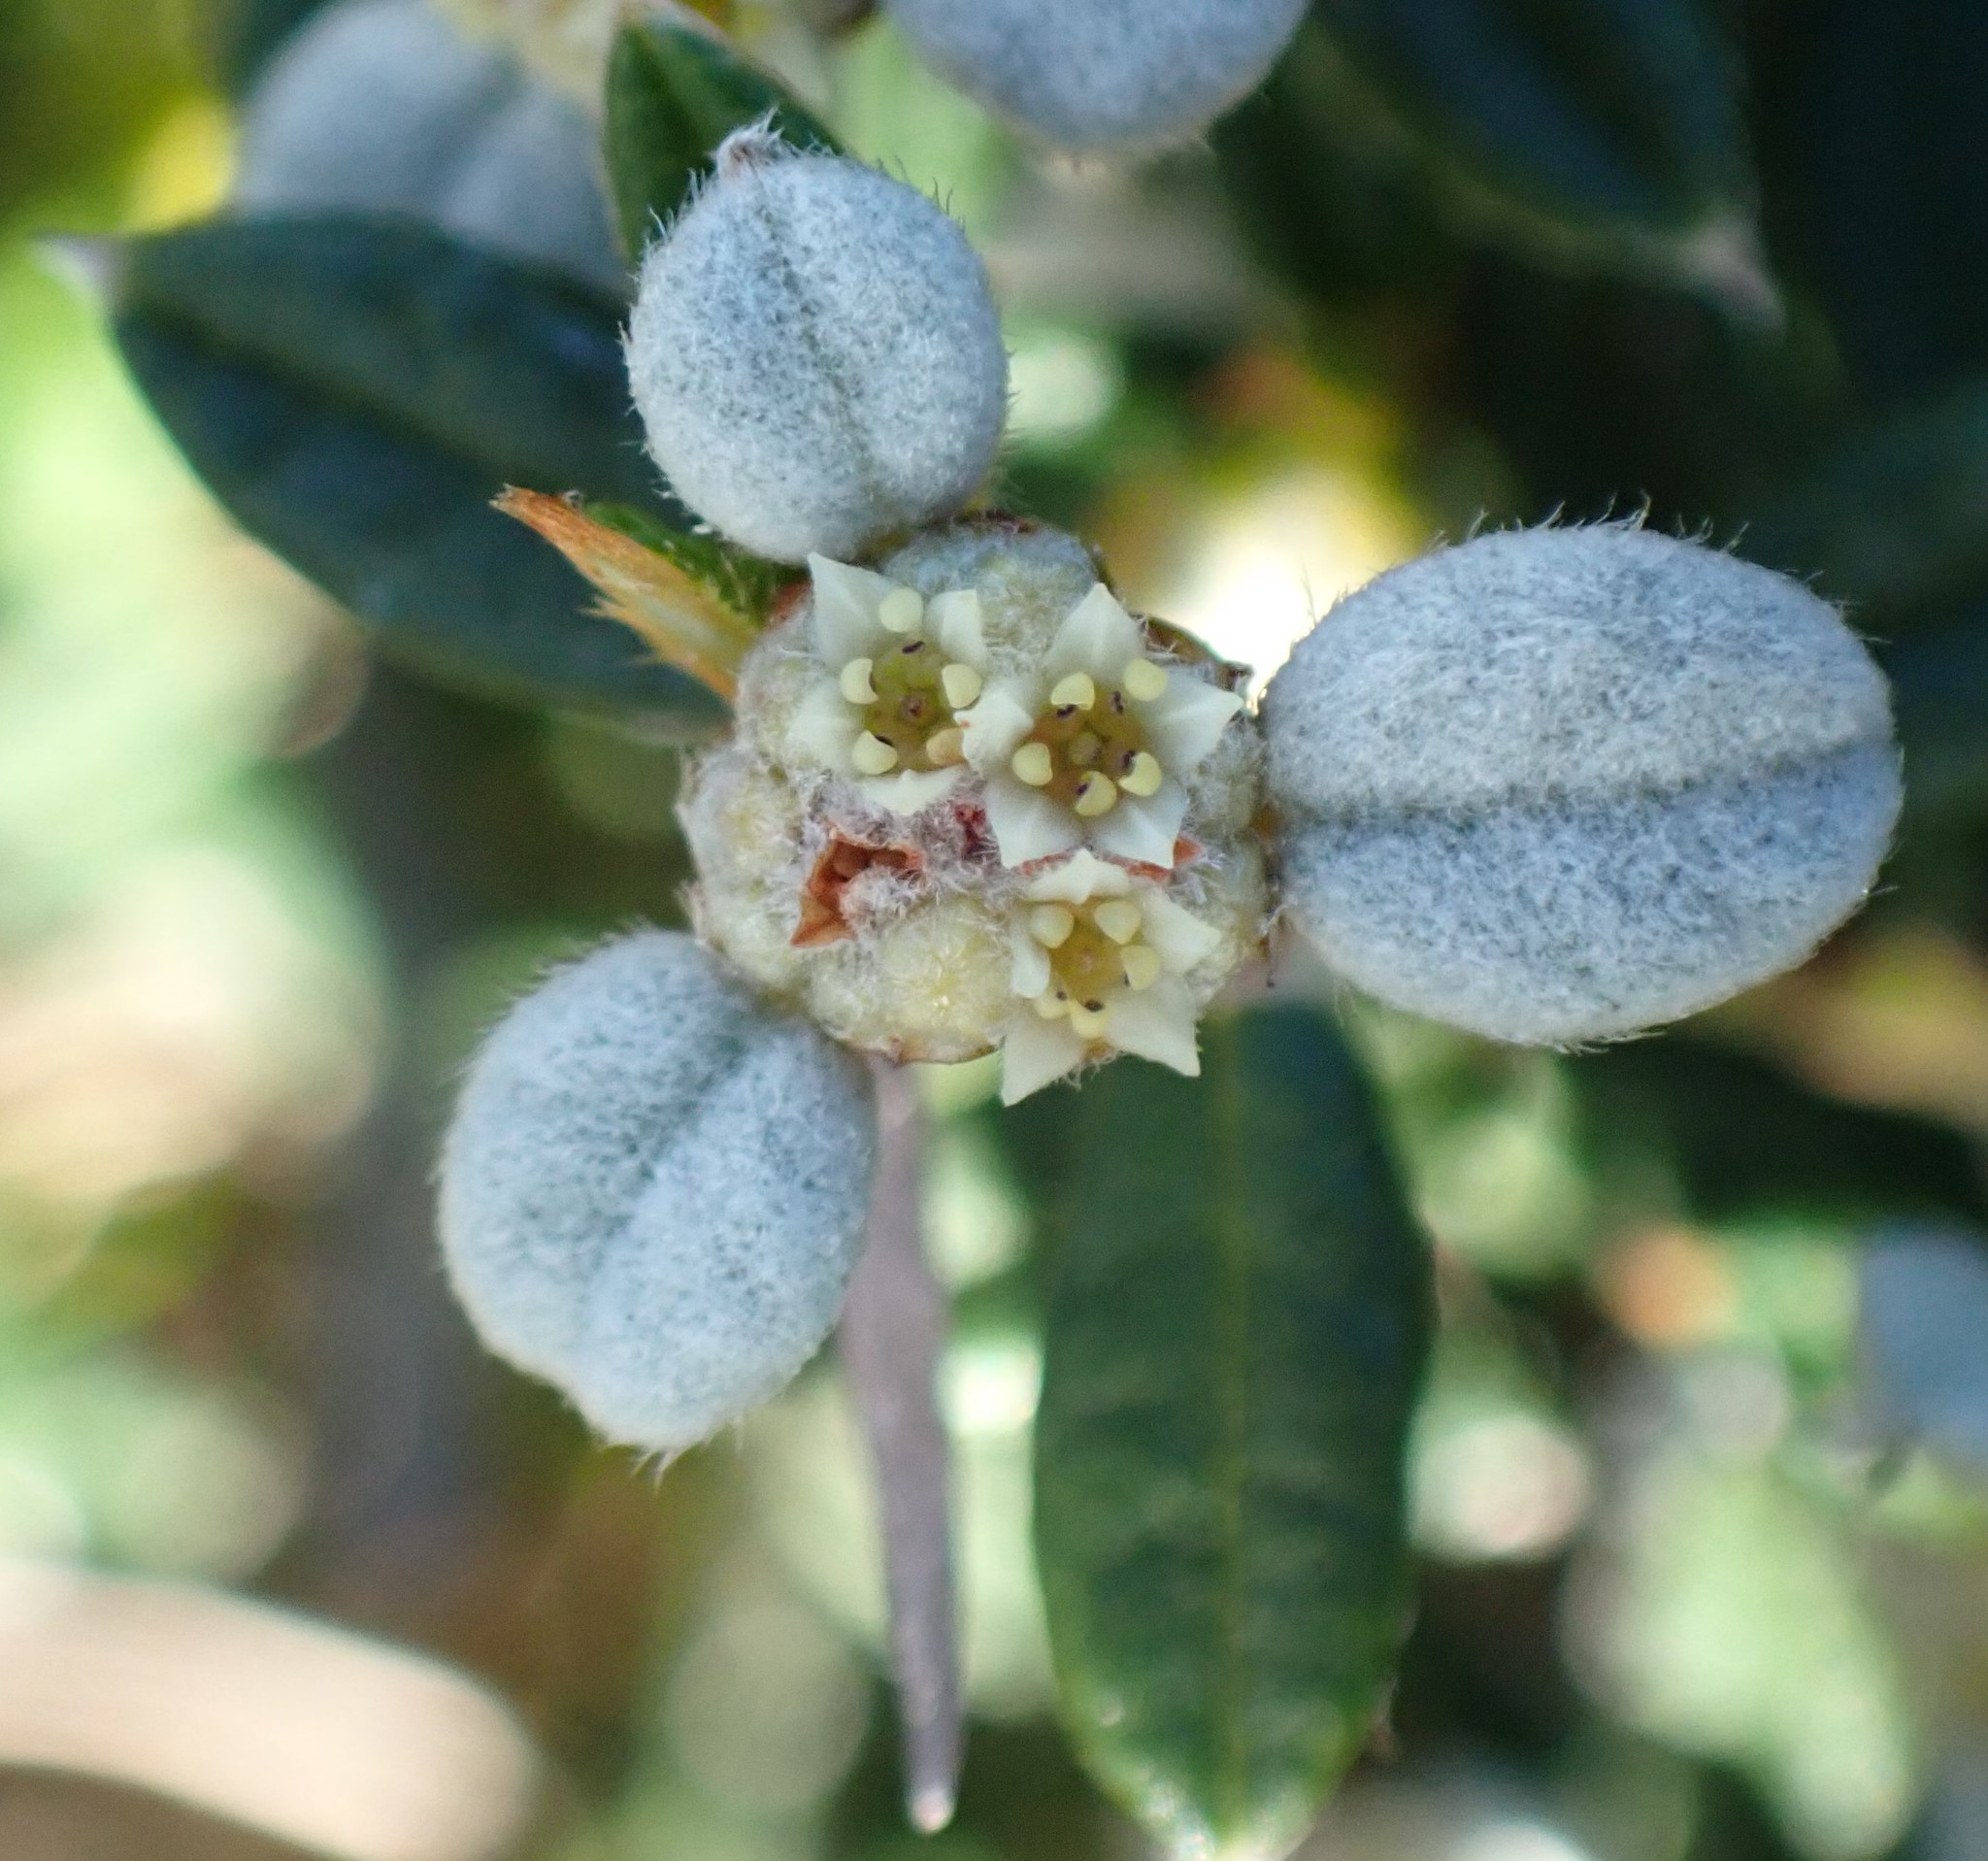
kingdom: Plantae
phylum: Tracheophyta
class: Magnoliopsida
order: Rosales
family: Rhamnaceae
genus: Spyridium
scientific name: Spyridium vexilliferum
